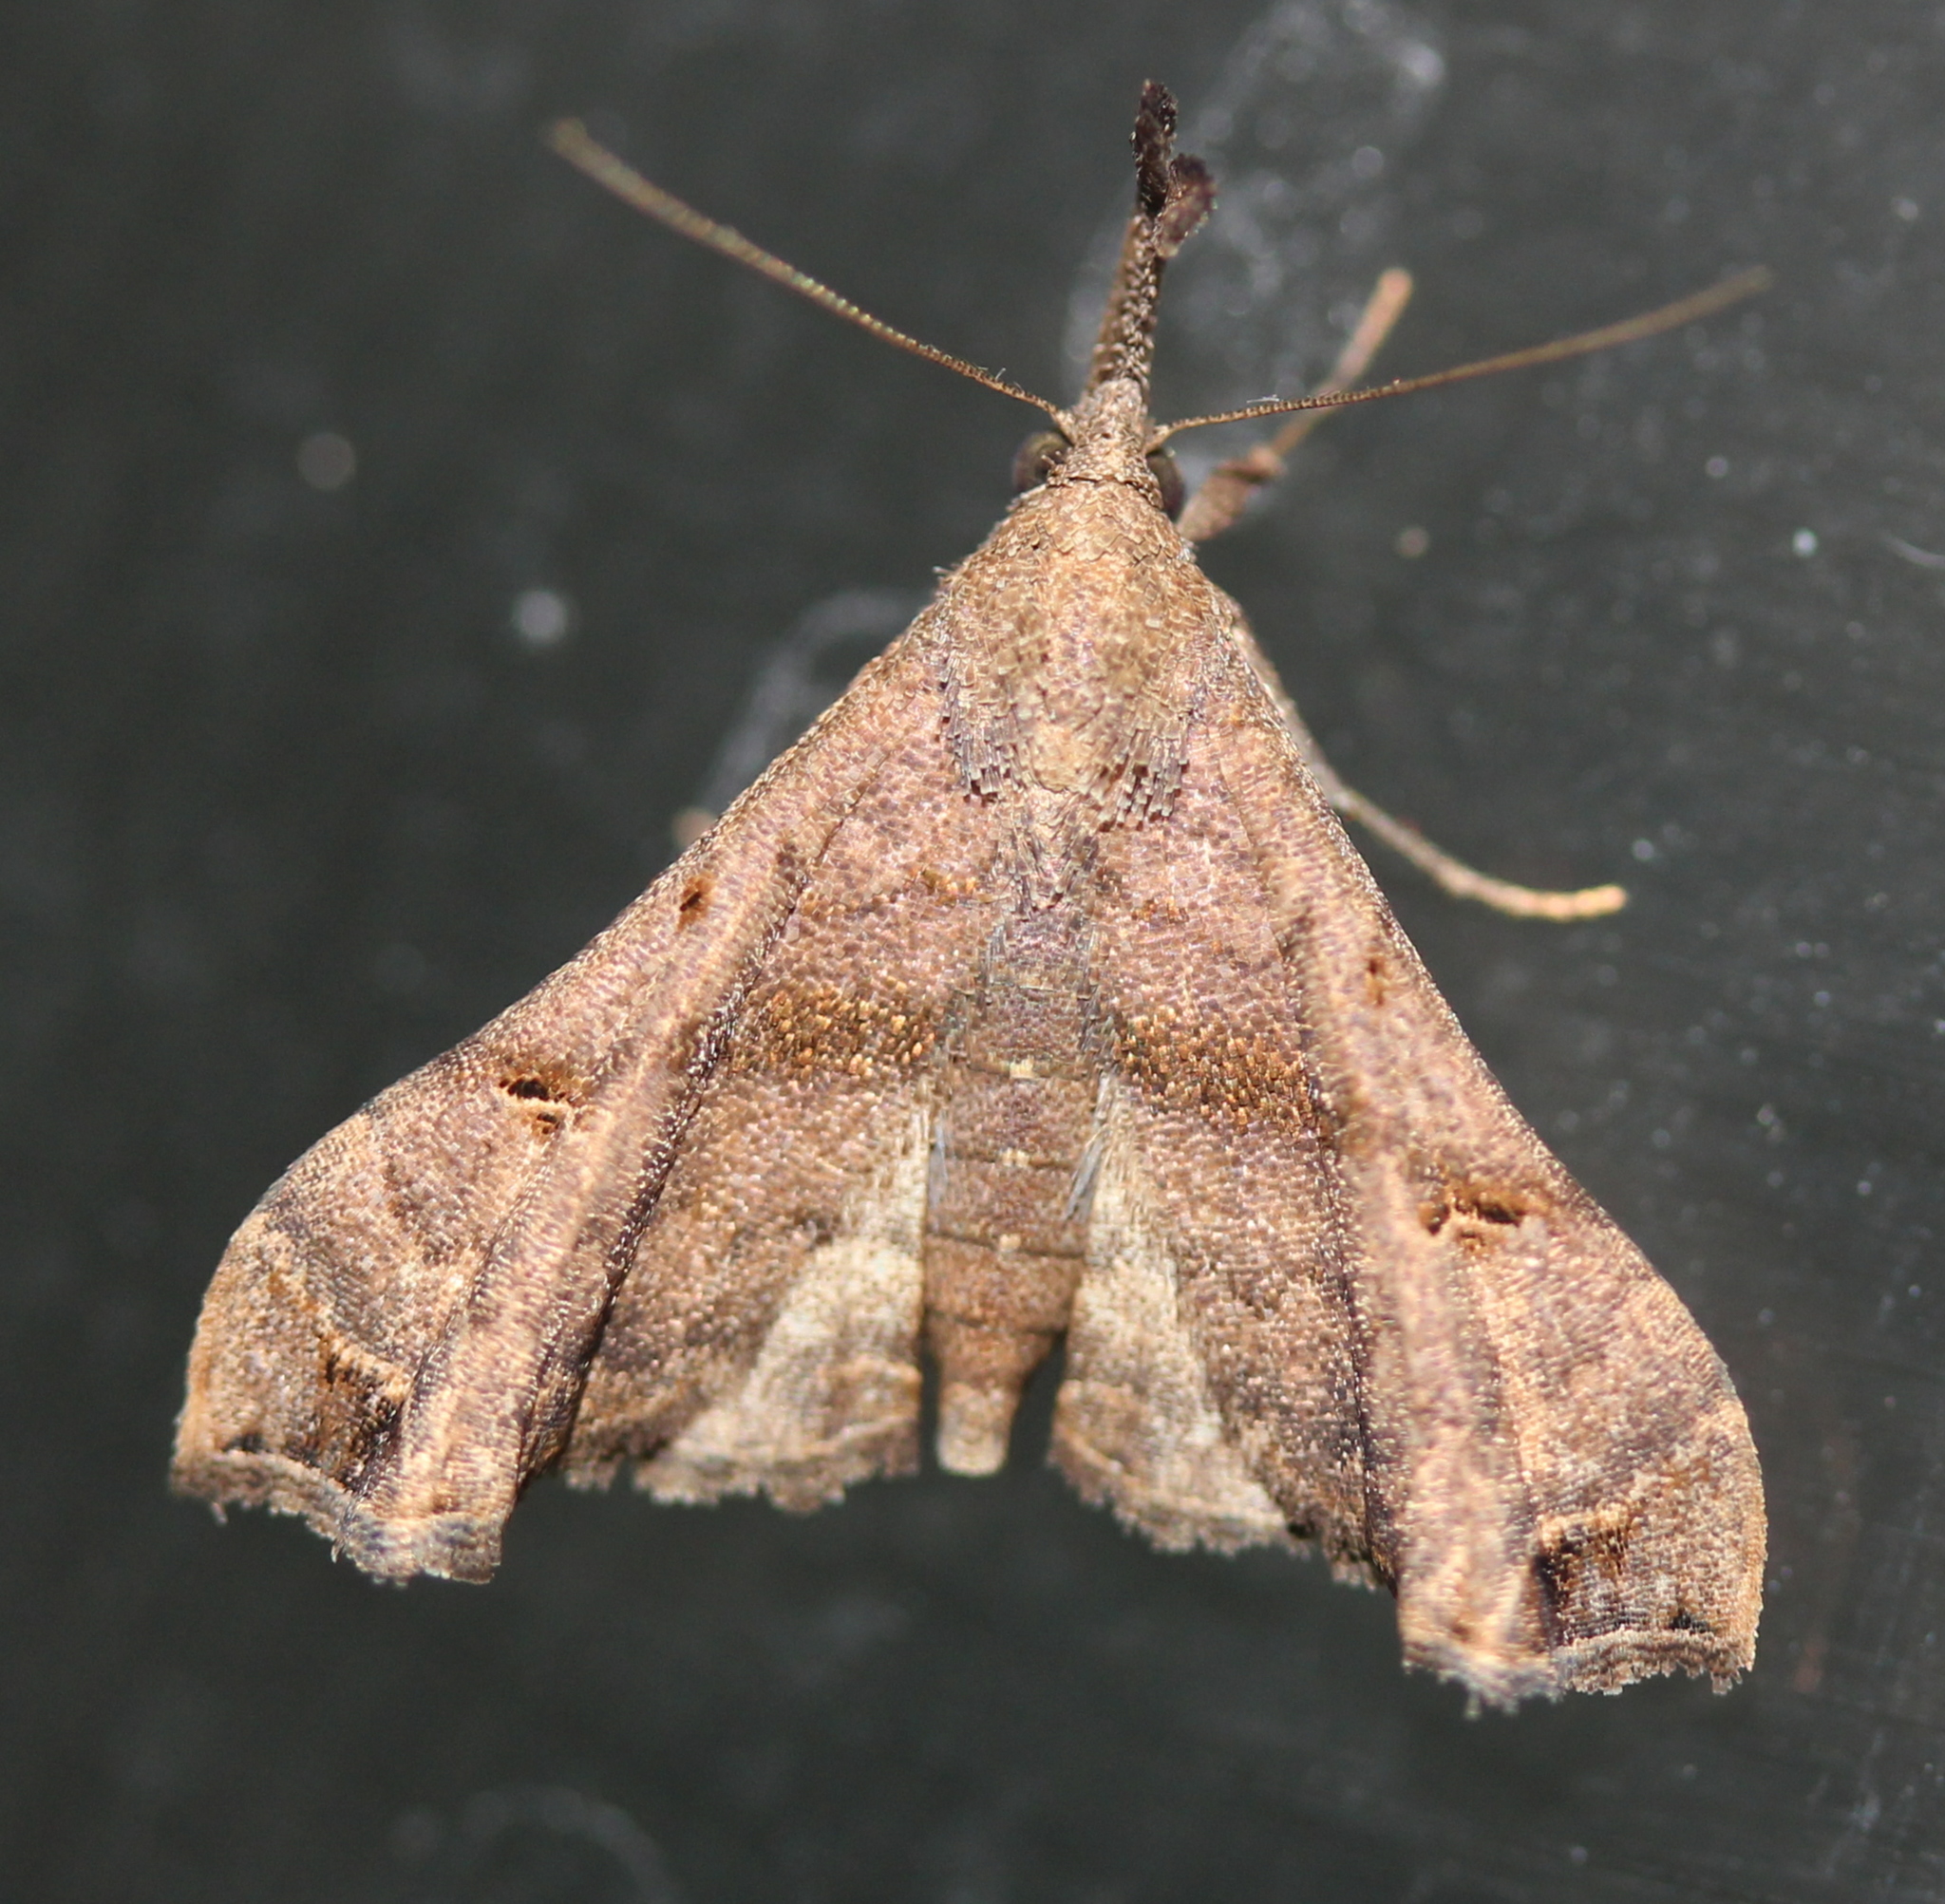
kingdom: Animalia
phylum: Arthropoda
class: Insecta
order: Lepidoptera
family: Erebidae
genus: Palthis
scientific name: Palthis asopialis
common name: Faint-spotted palthis moth
